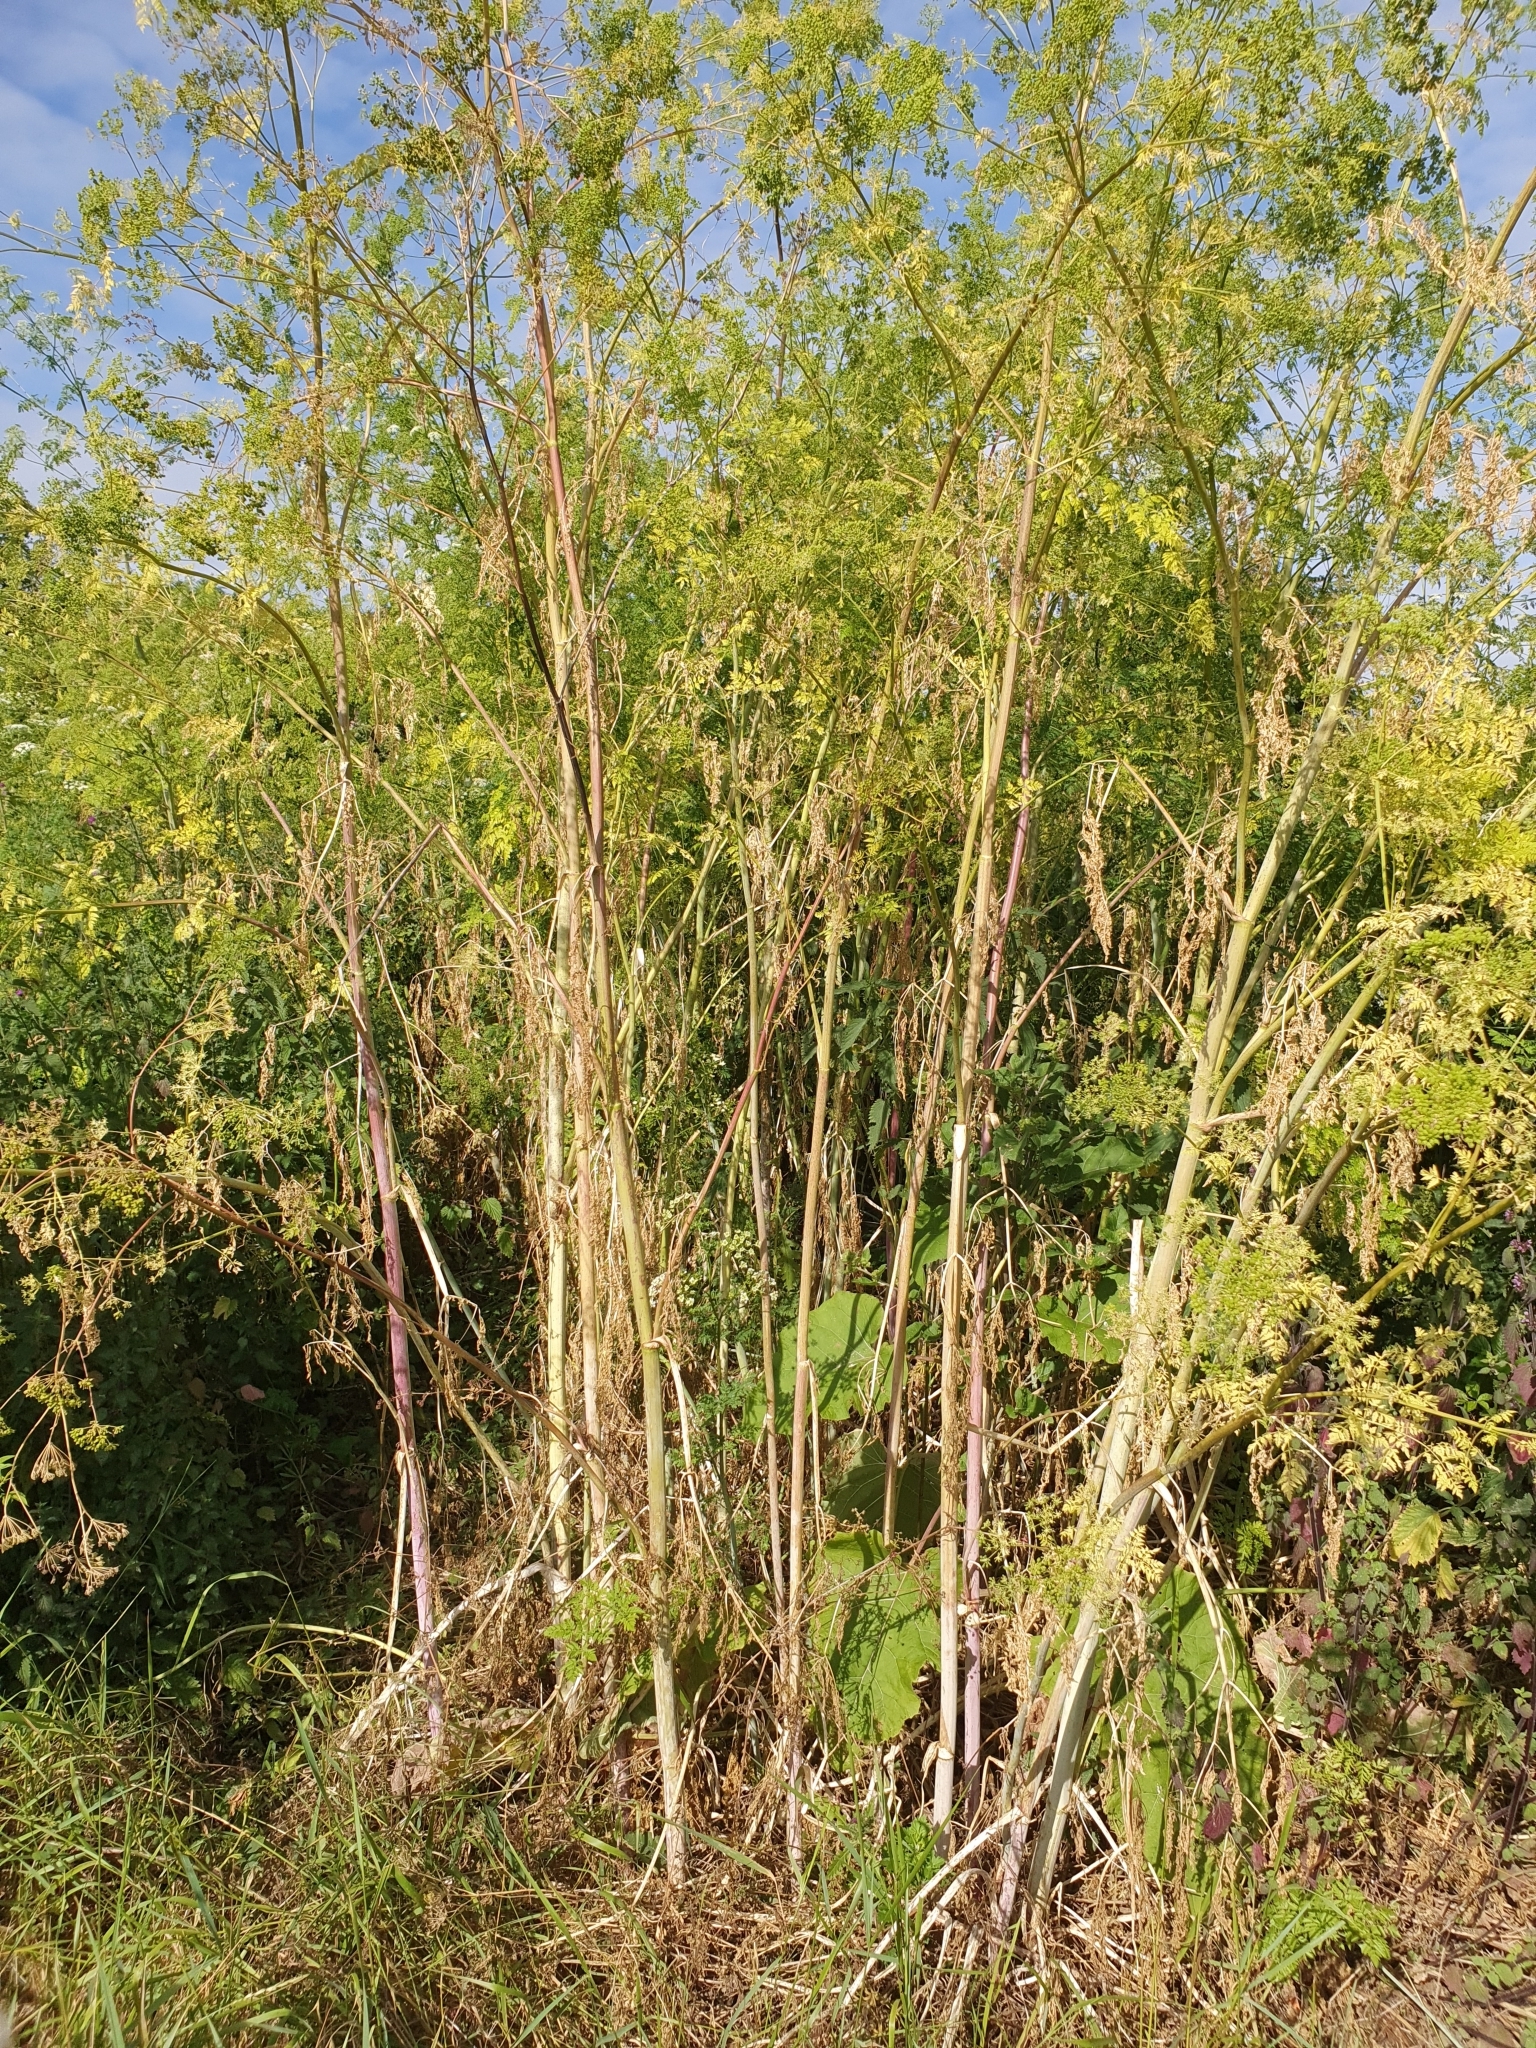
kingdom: Plantae
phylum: Tracheophyta
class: Magnoliopsida
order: Apiales
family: Apiaceae
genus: Conium
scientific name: Conium maculatum
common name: Hemlock
